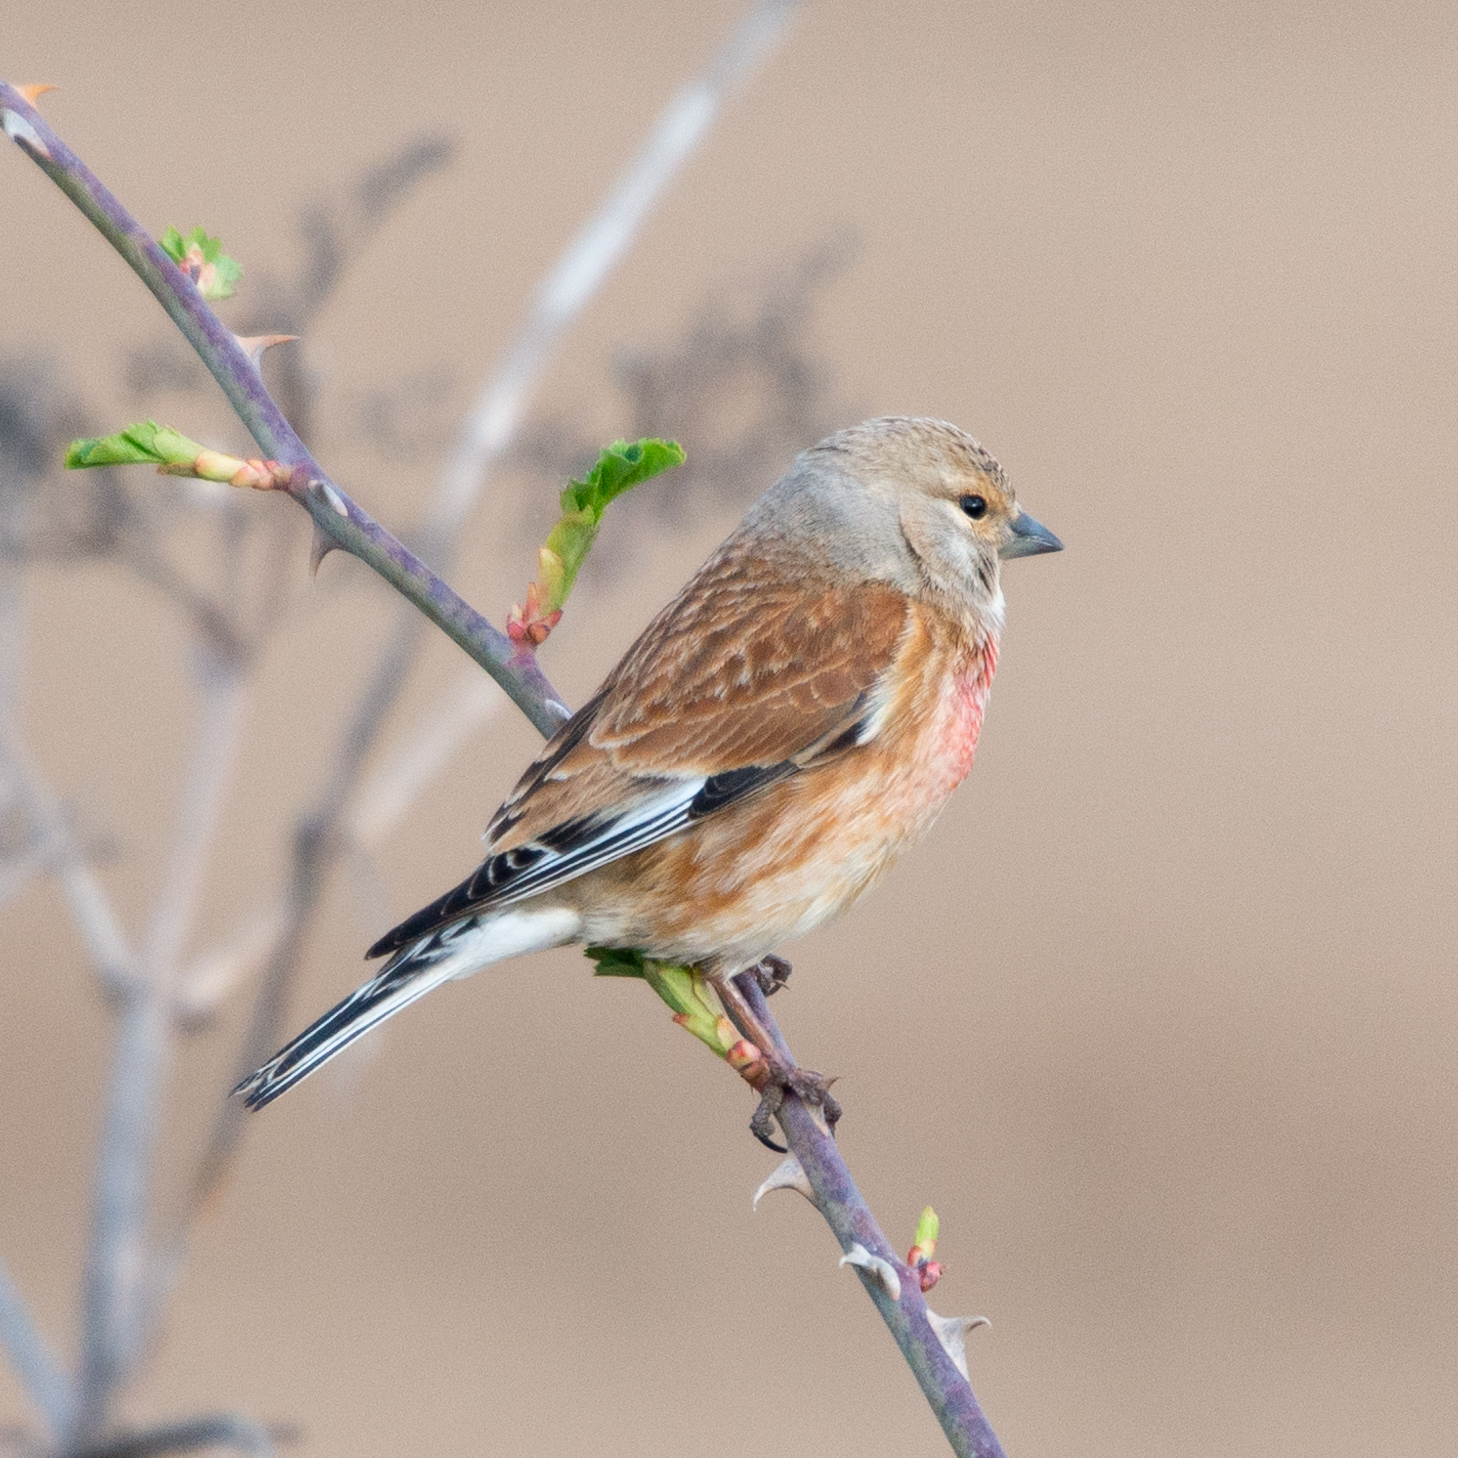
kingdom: Animalia
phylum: Chordata
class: Aves
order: Passeriformes
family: Fringillidae
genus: Linaria
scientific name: Linaria cannabina
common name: Common linnet
